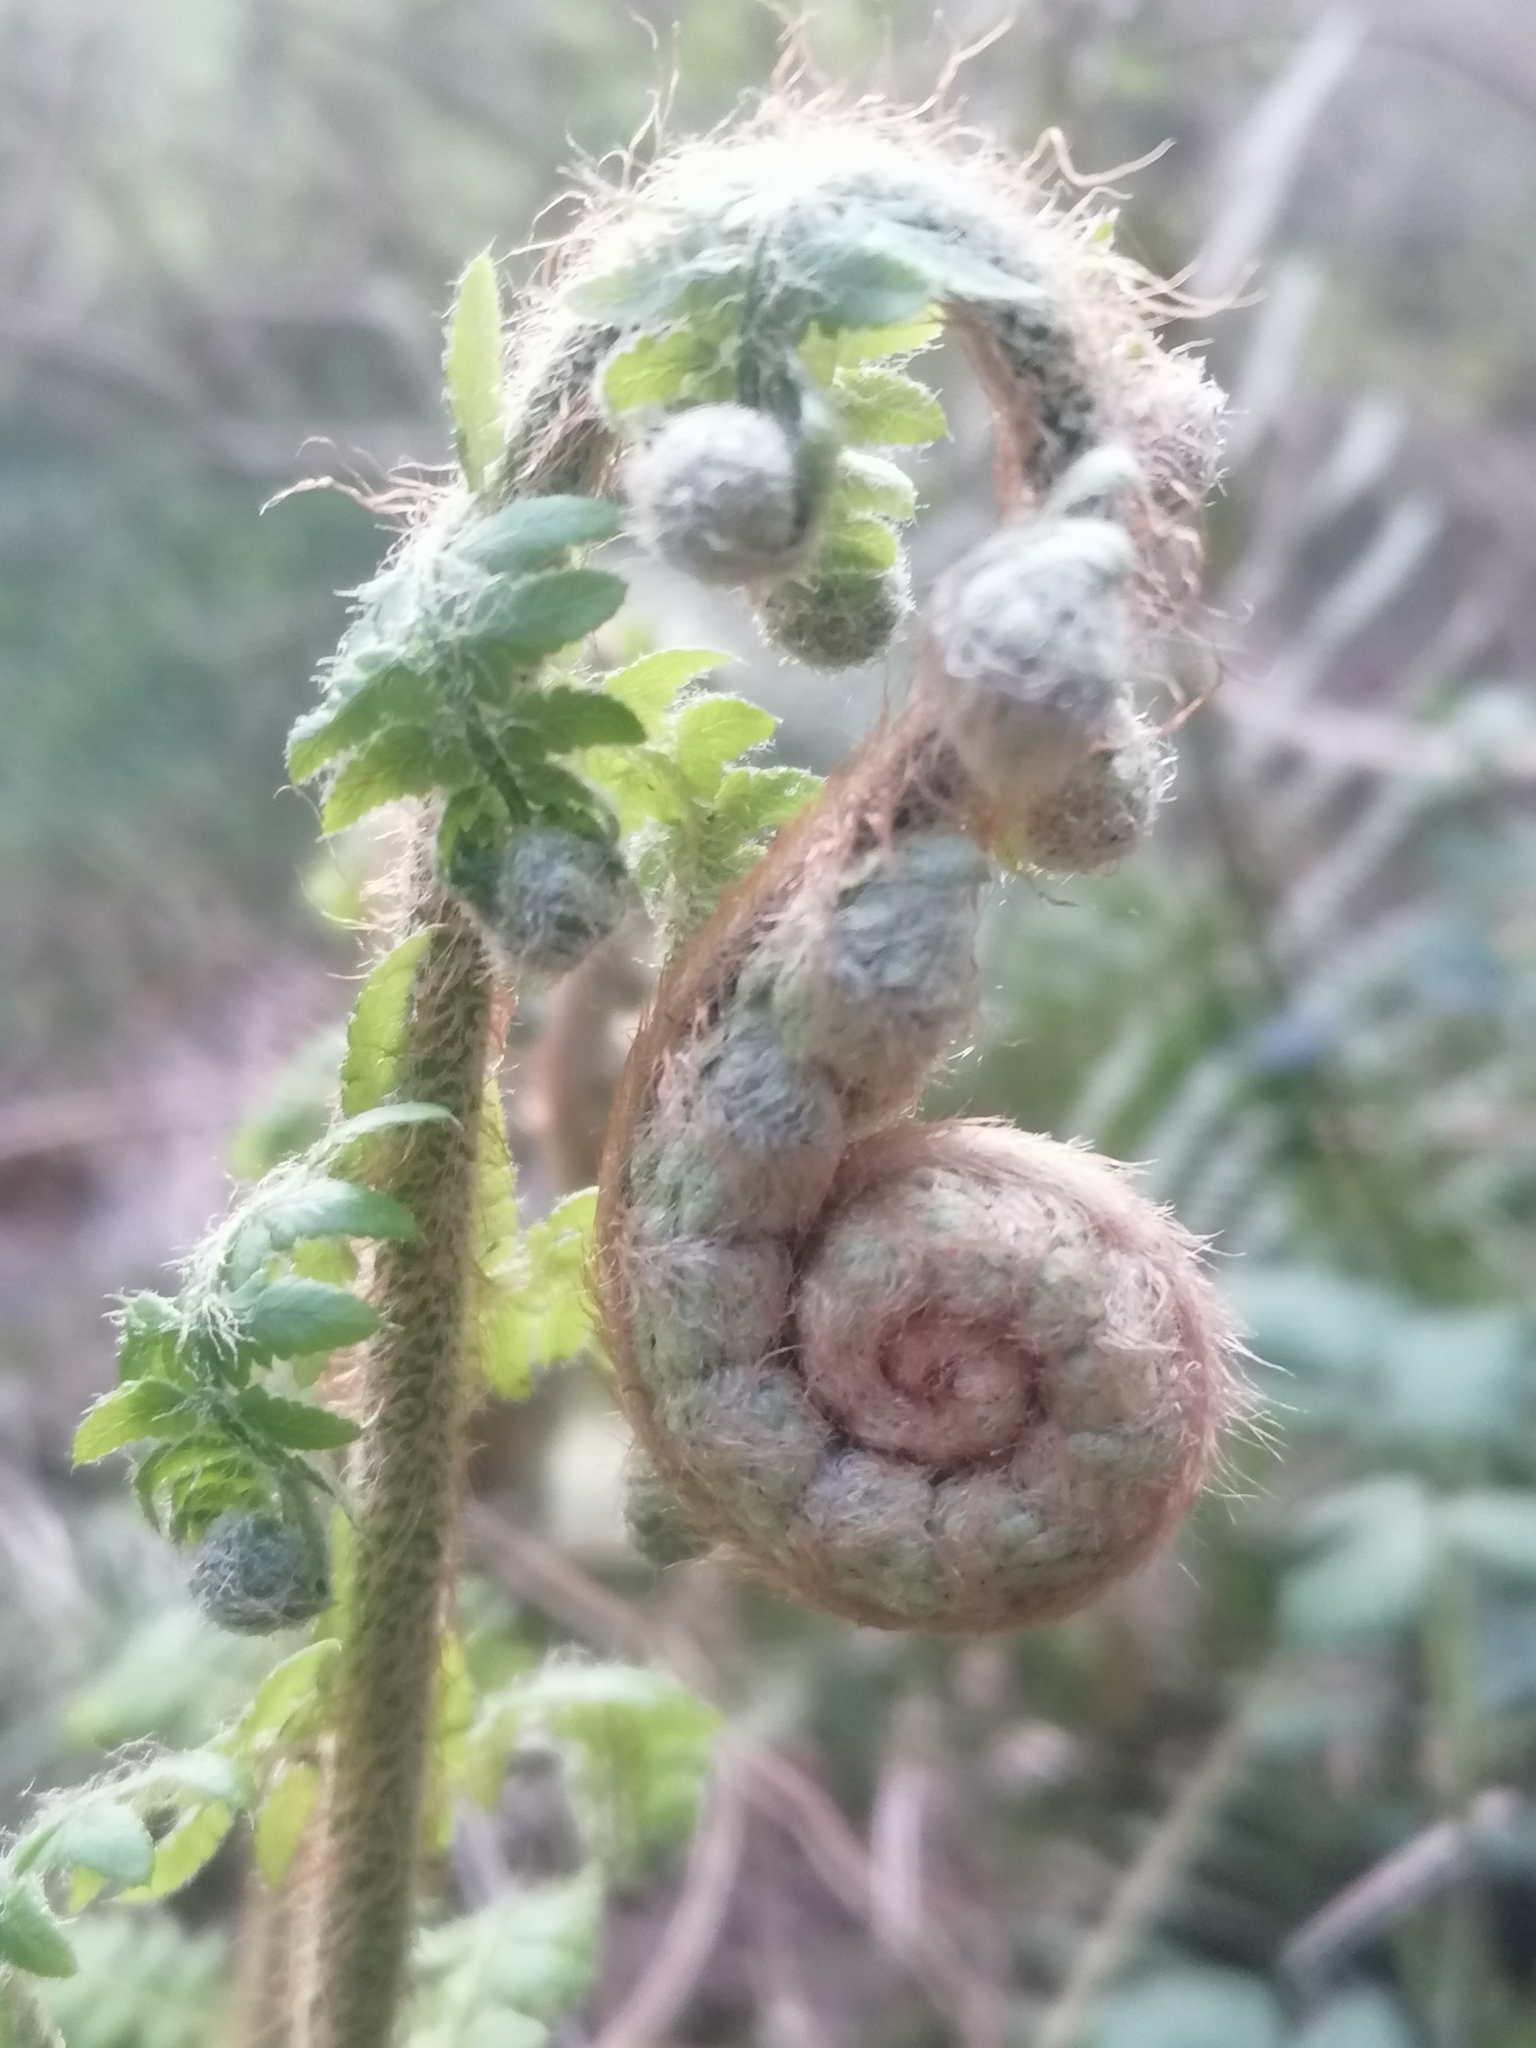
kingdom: Plantae
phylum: Tracheophyta
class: Polypodiopsida
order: Polypodiales
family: Dryopteridaceae
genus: Polystichum
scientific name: Polystichum setiferum
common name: Soft shield-fern
